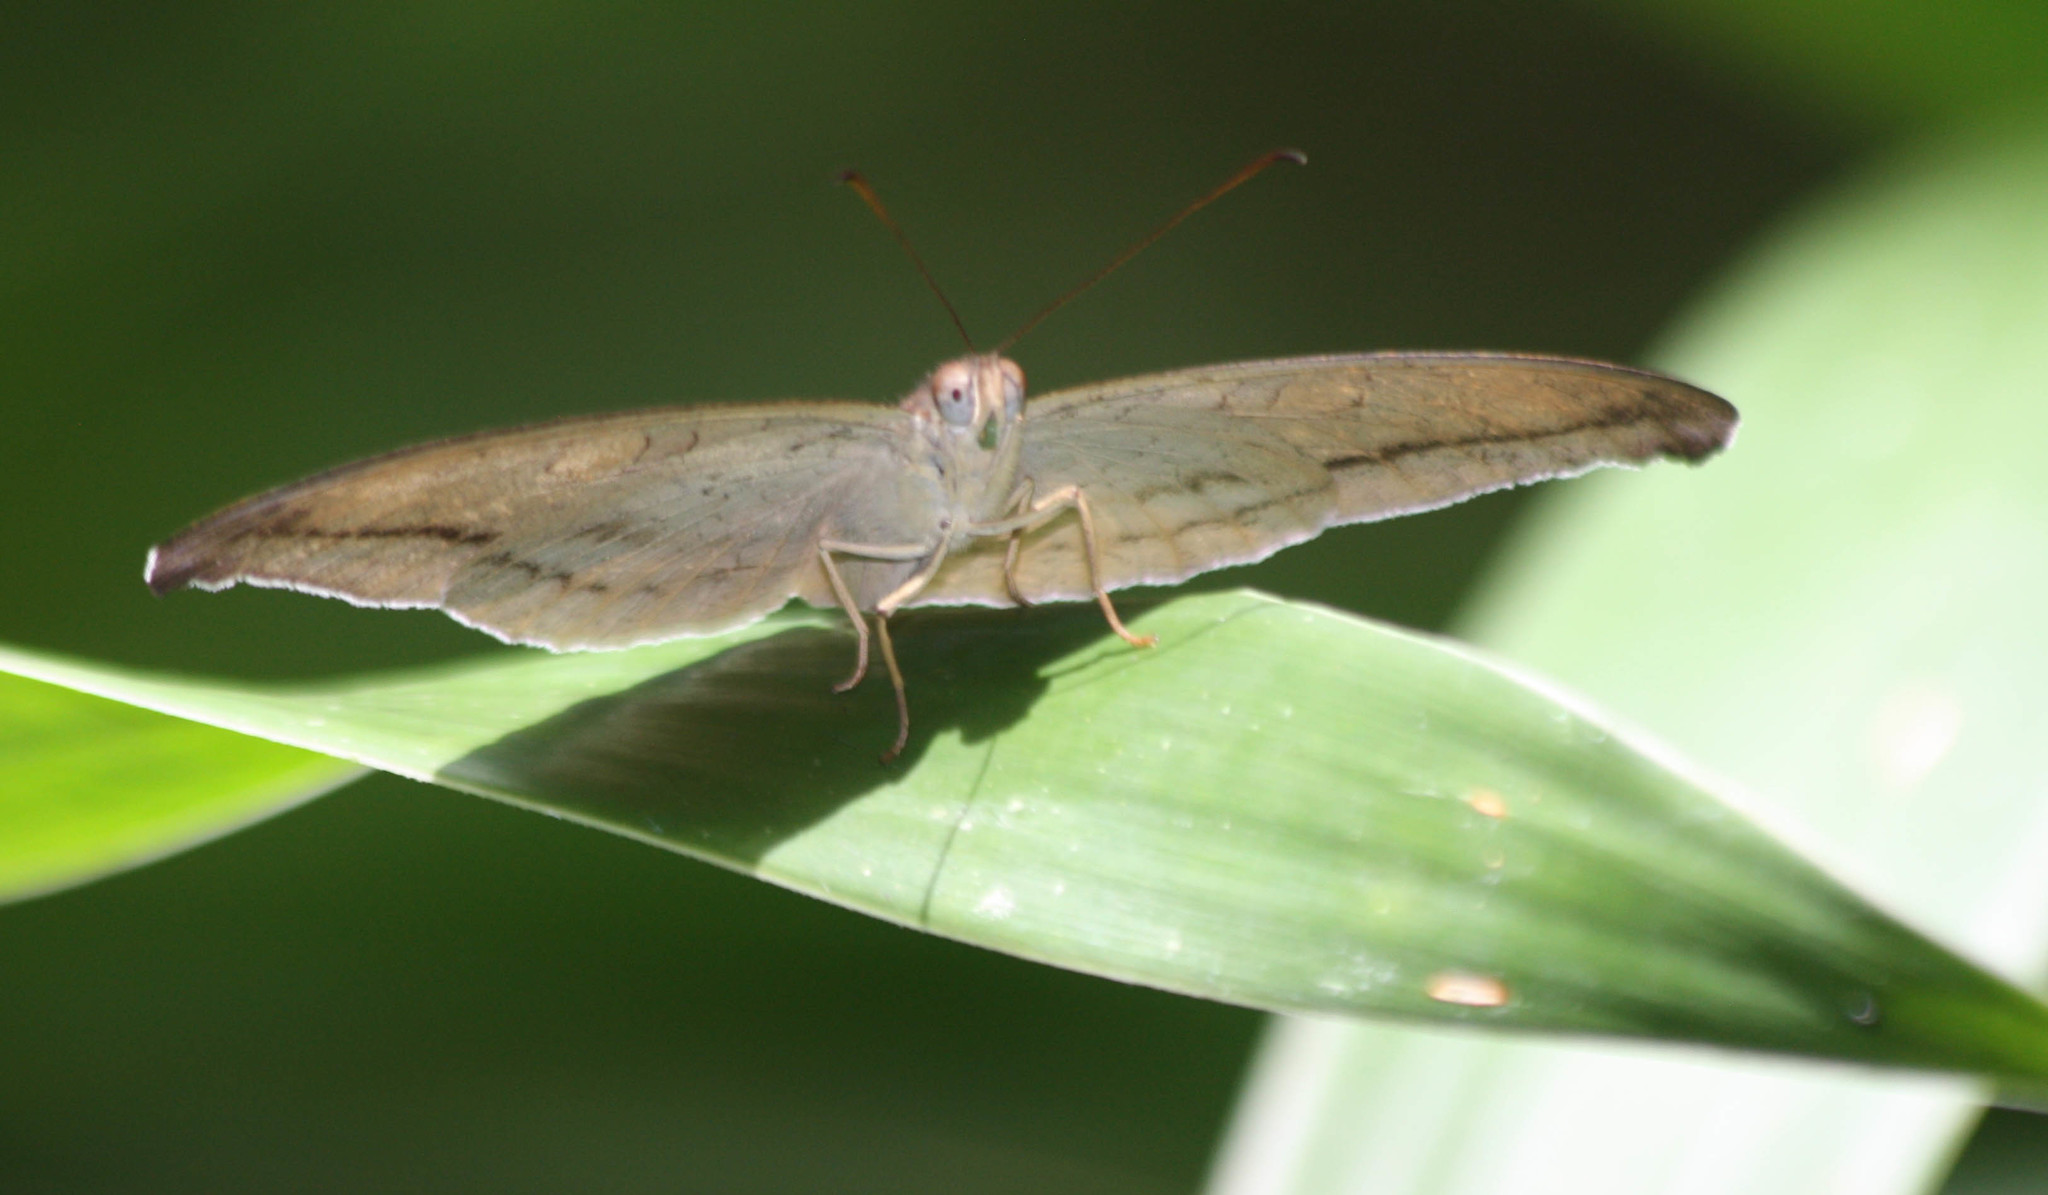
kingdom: Animalia
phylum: Arthropoda
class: Insecta
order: Lepidoptera
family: Nymphalidae
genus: Tanaecia
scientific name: Tanaecia lepidea
